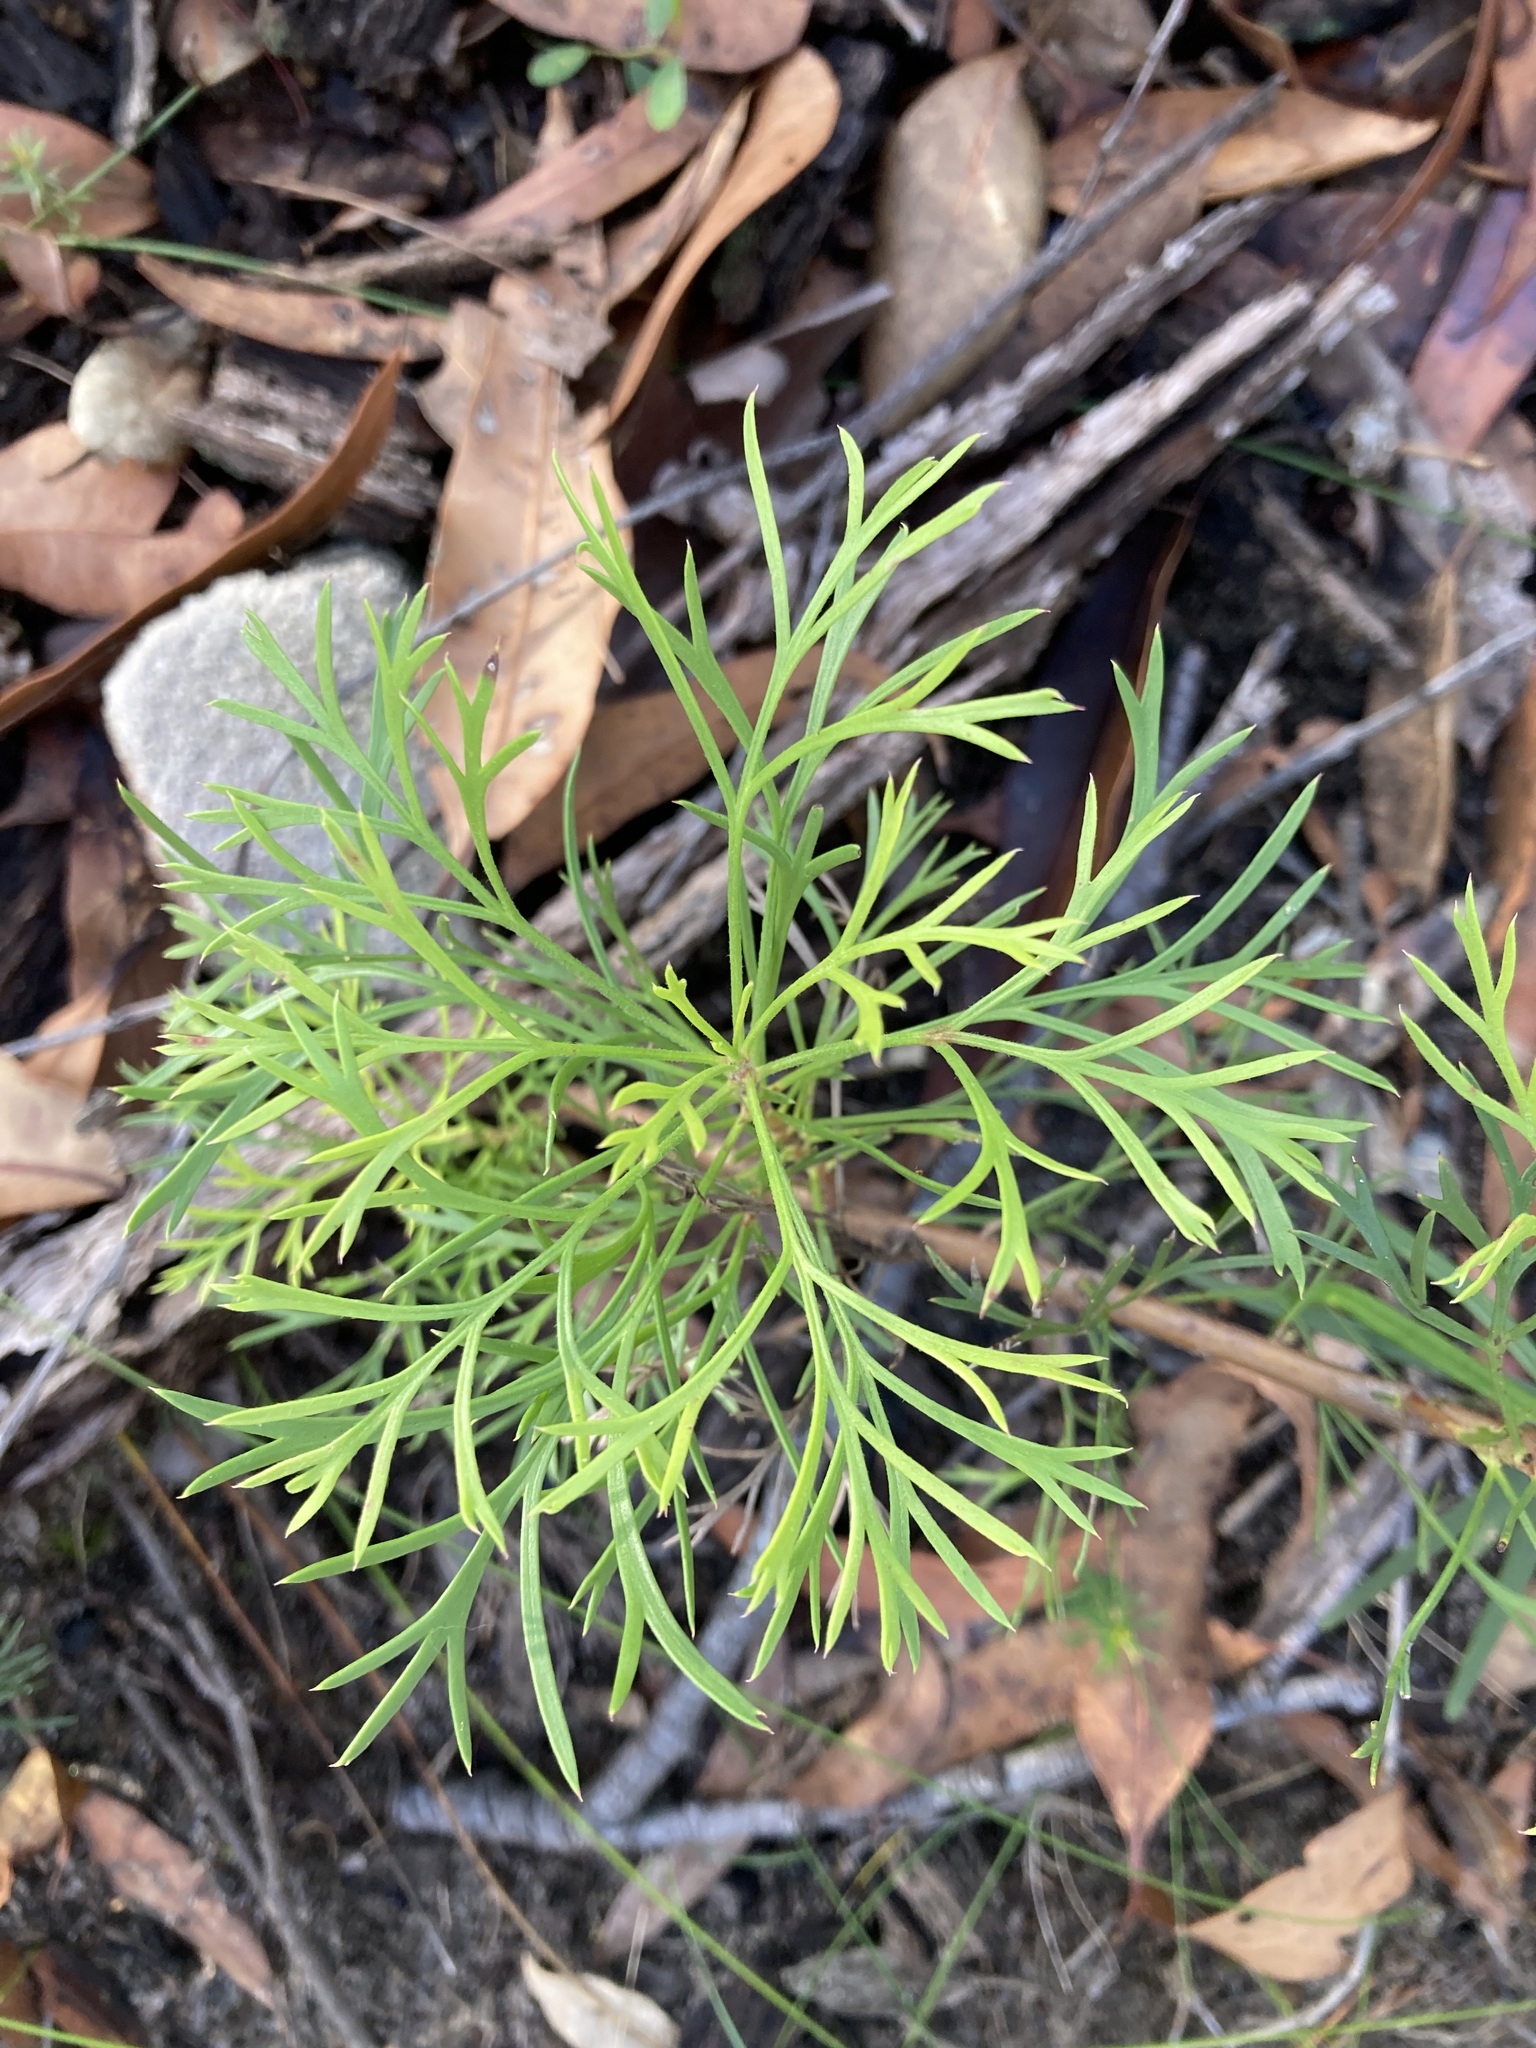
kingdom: Plantae
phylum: Tracheophyta
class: Magnoliopsida
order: Proteales
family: Proteaceae
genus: Isopogon
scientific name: Isopogon anemonifolius
